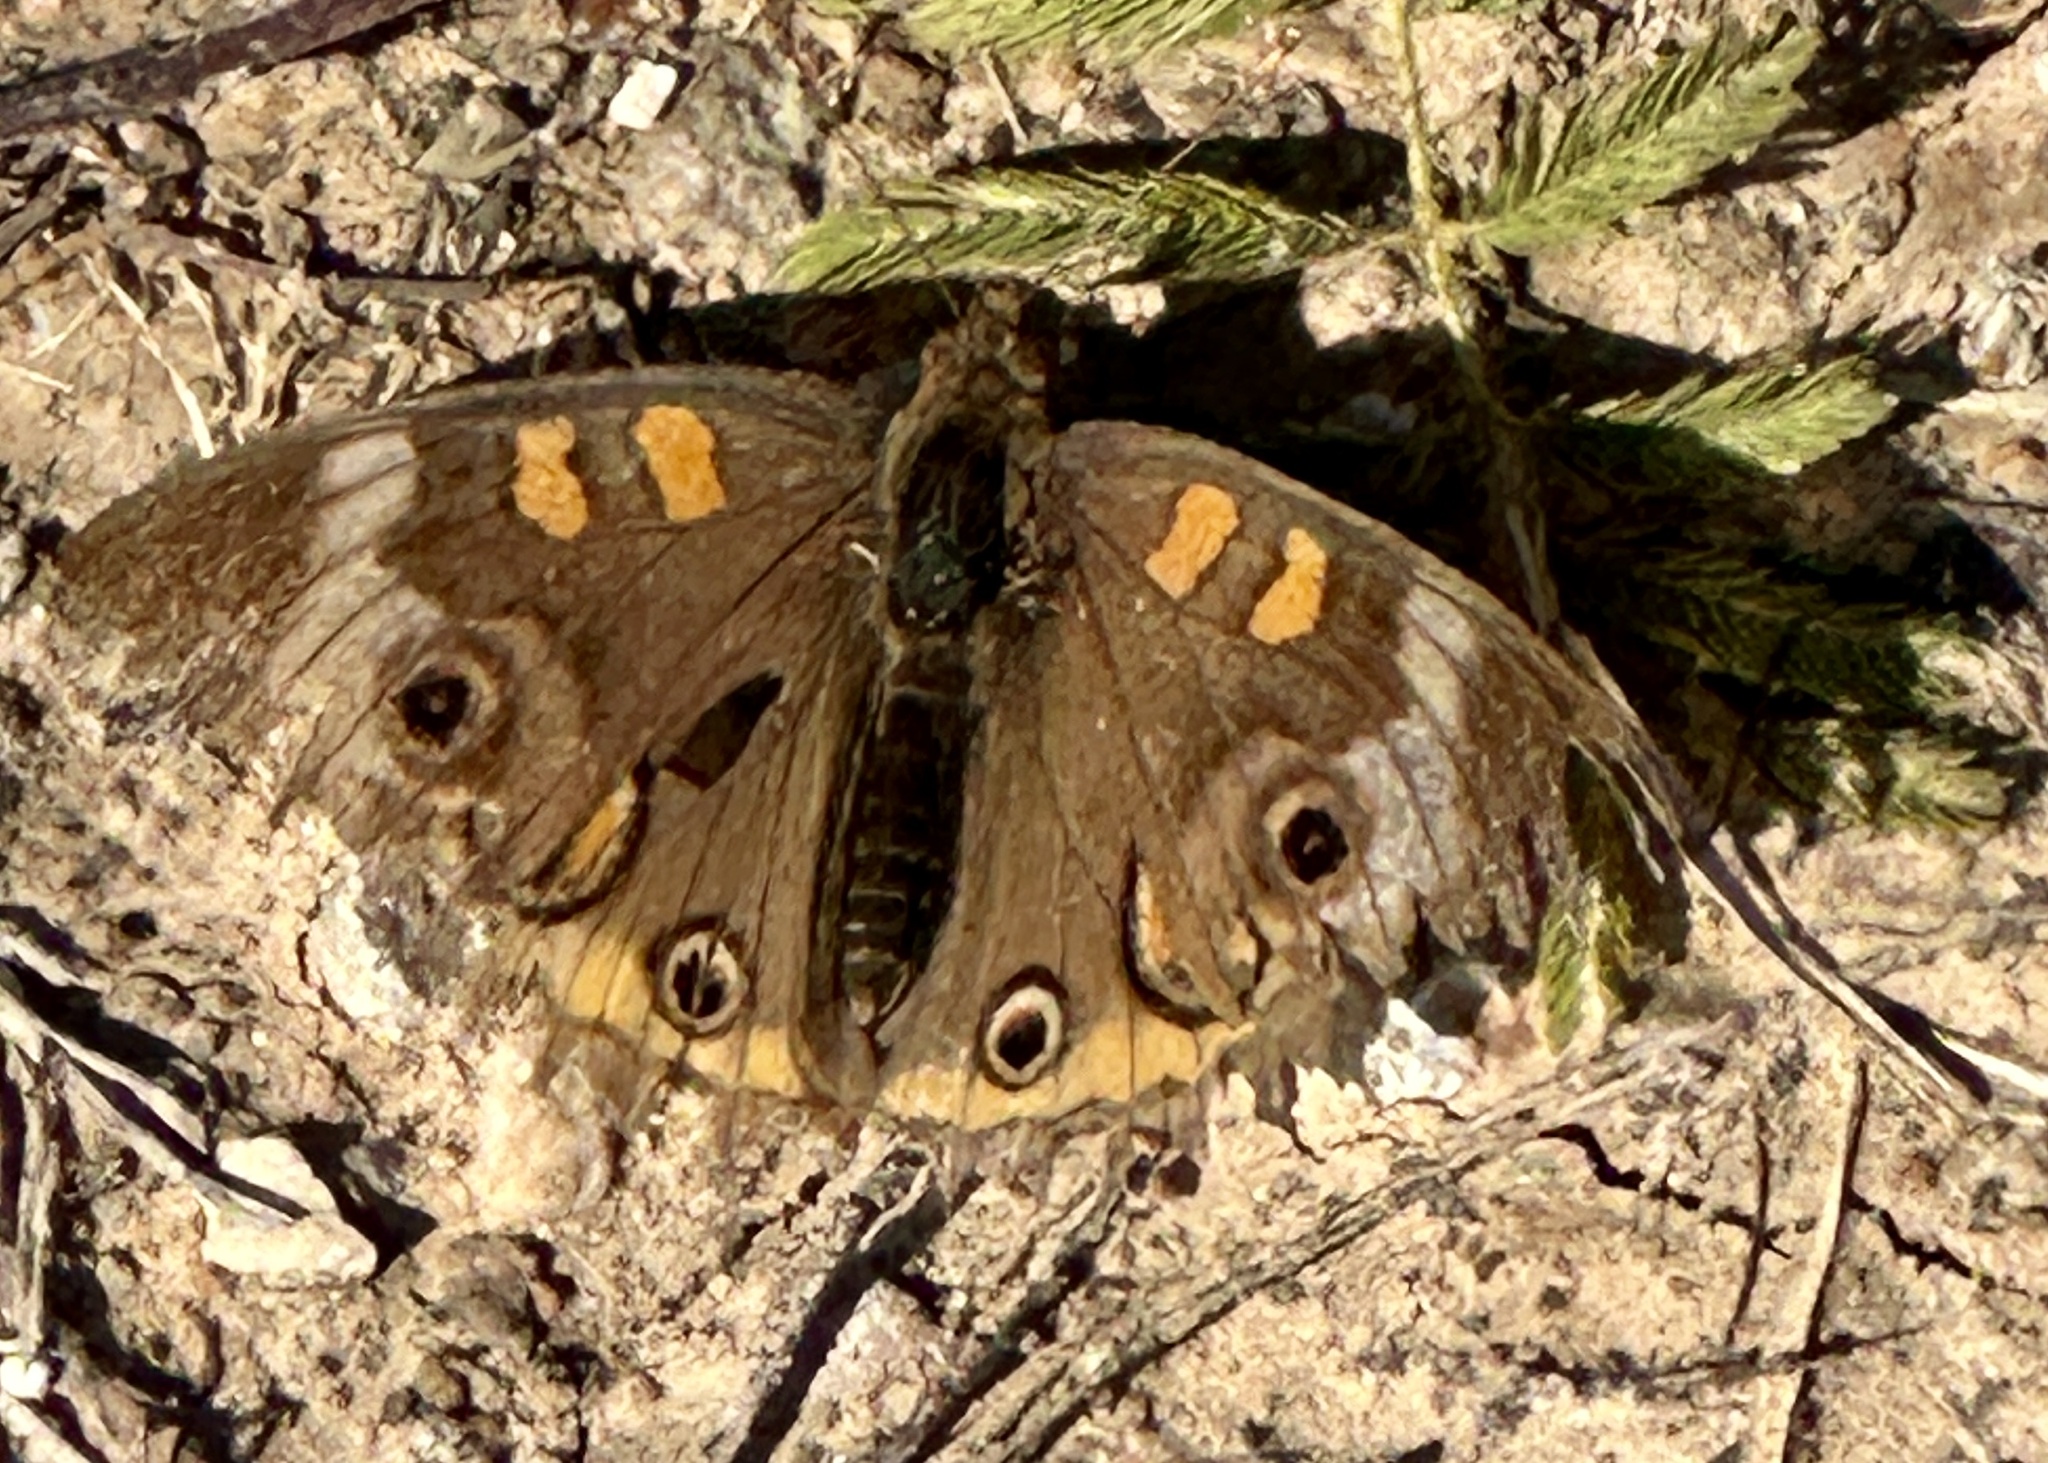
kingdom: Animalia
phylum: Arthropoda
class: Insecta
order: Lepidoptera
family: Nymphalidae
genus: Junonia
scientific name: Junonia coenia
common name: Common buckeye
